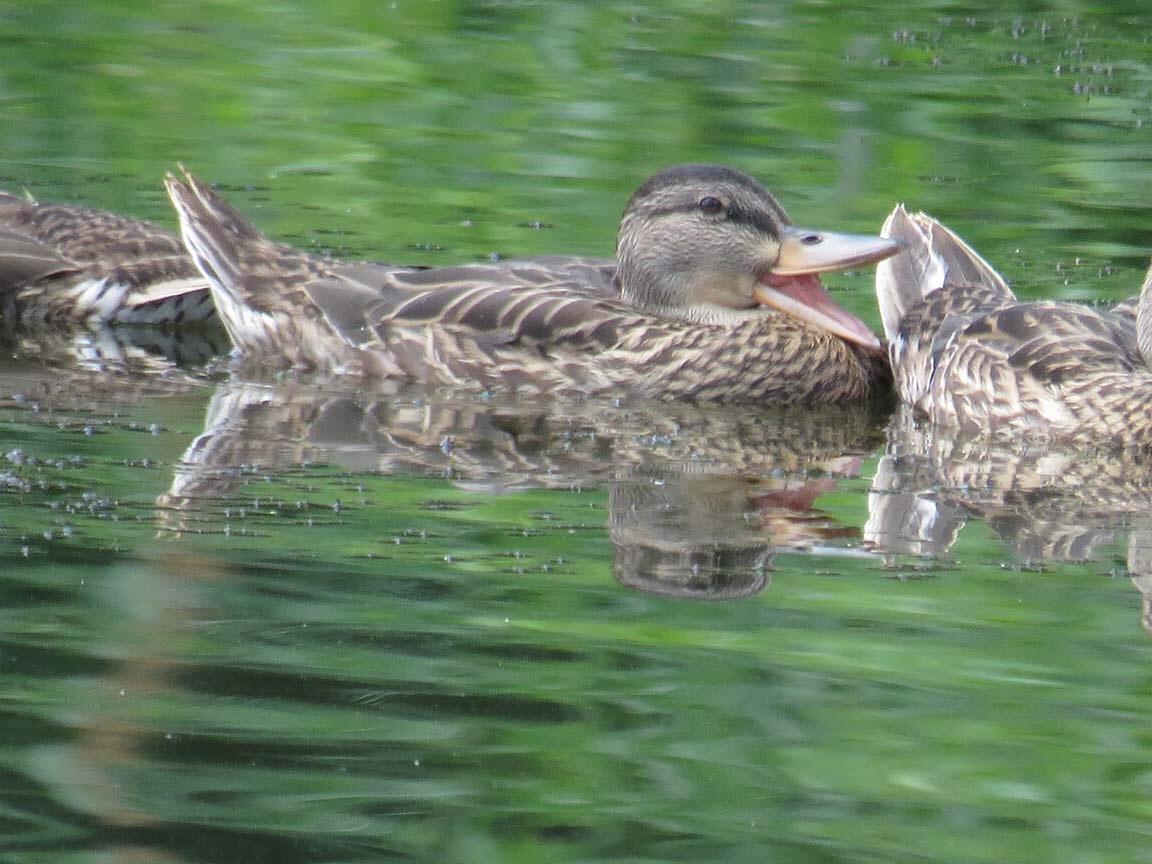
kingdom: Animalia
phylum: Chordata
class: Aves
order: Anseriformes
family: Anatidae
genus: Anas
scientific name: Anas platyrhynchos
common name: Mallard
